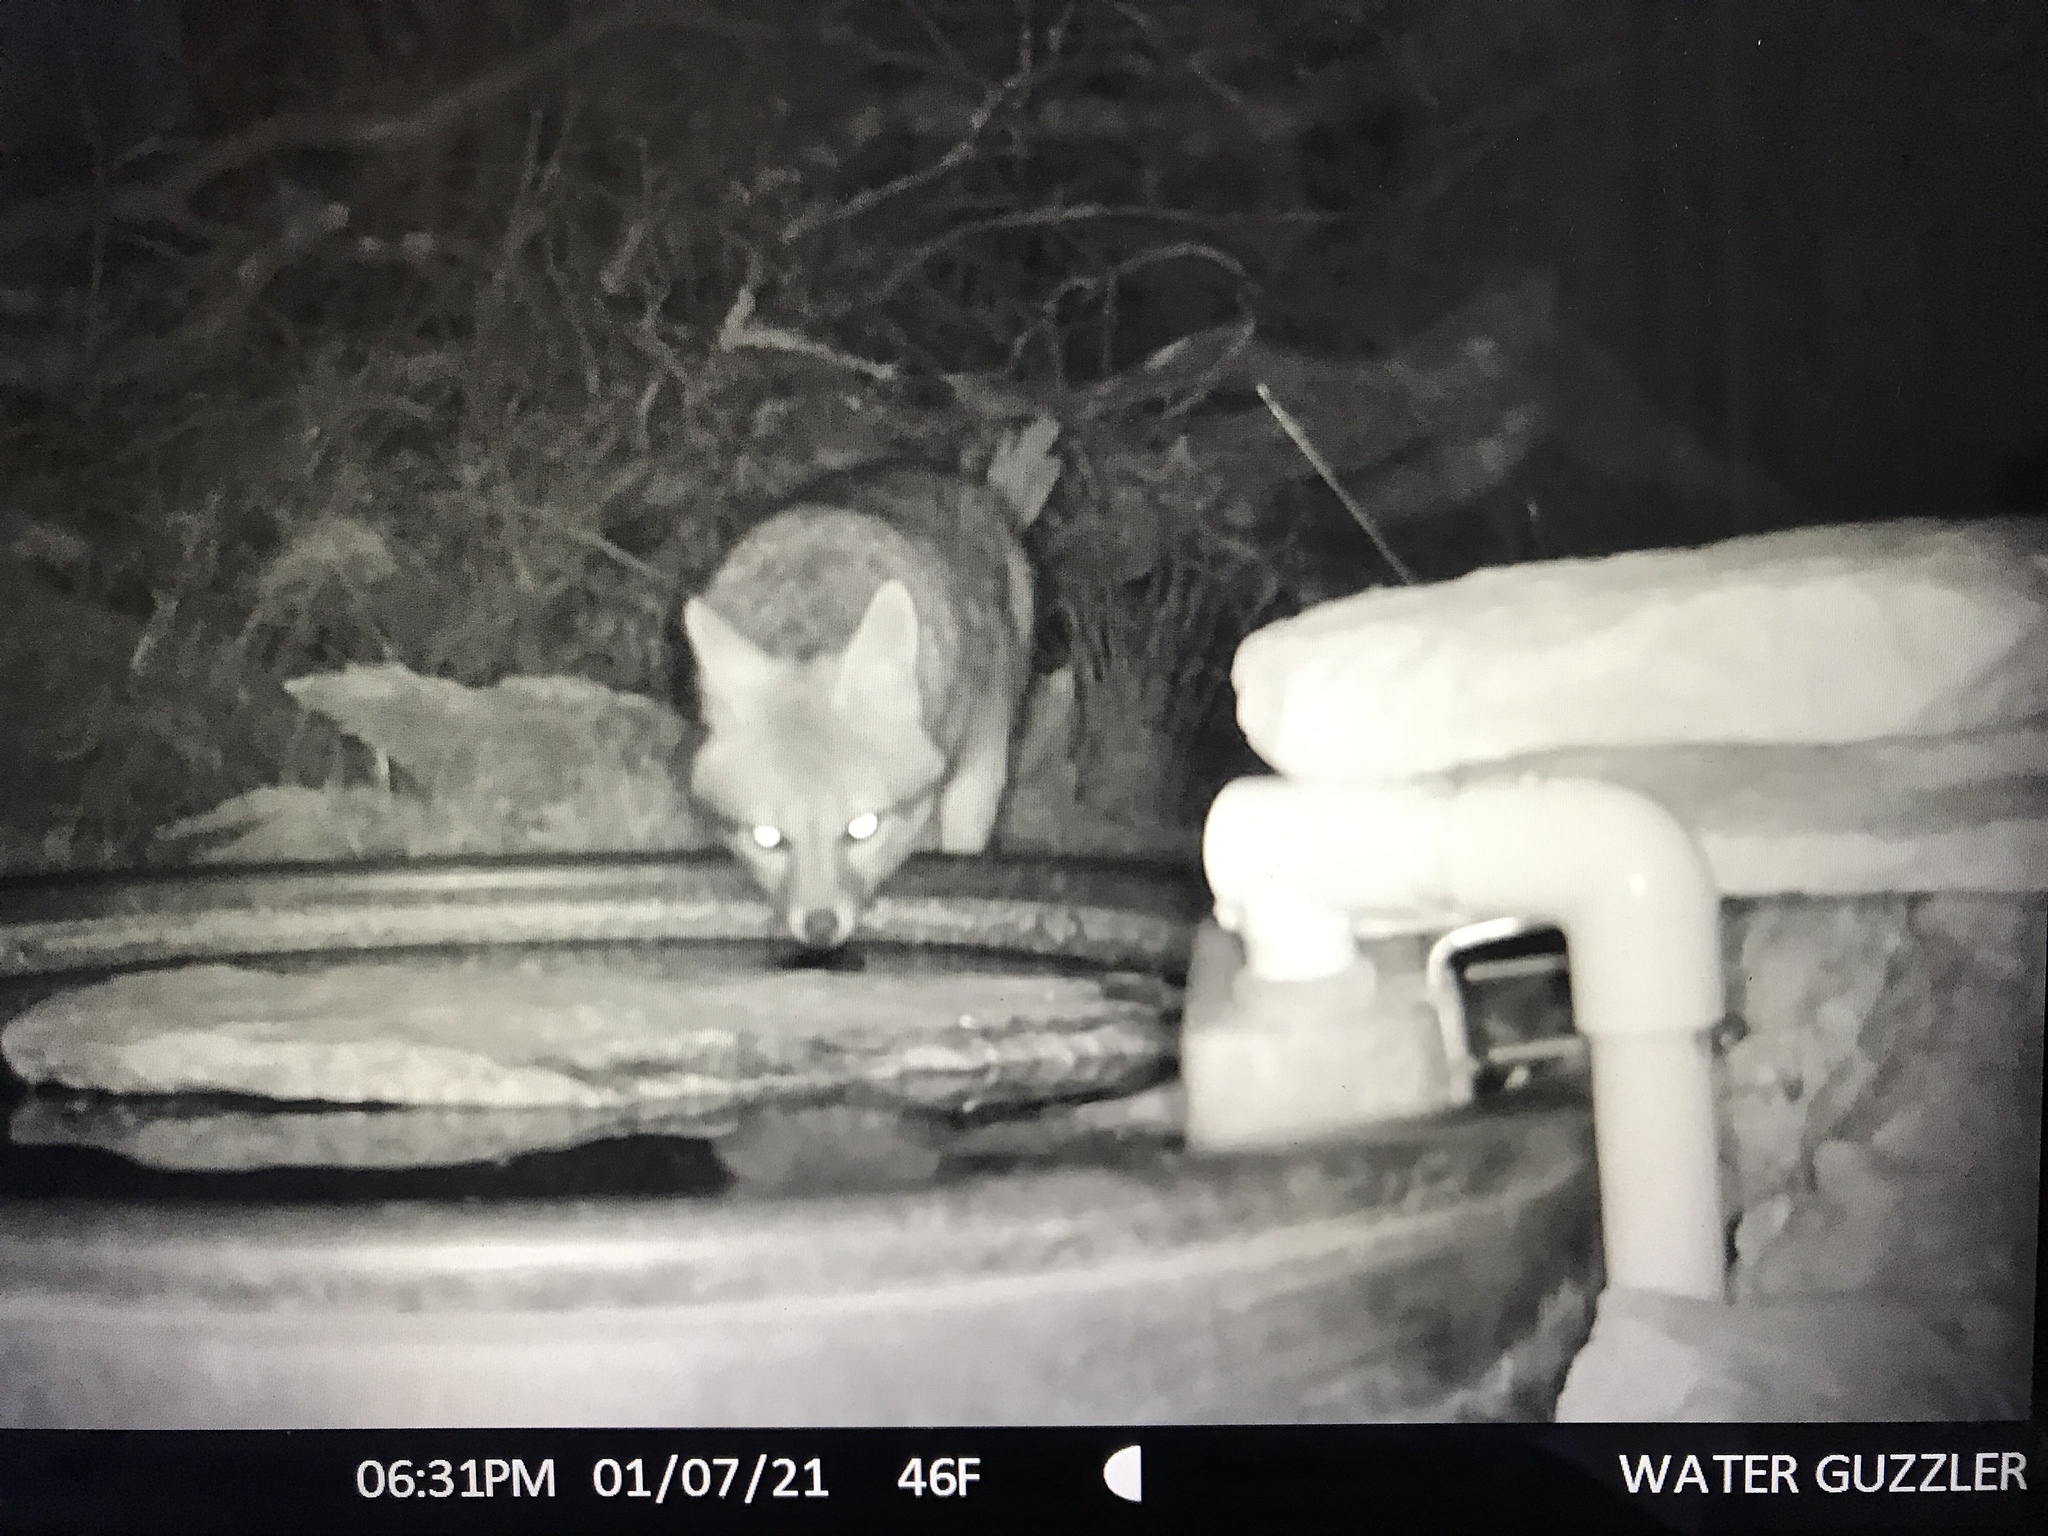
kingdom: Animalia
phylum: Chordata
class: Mammalia
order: Carnivora
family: Canidae
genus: Urocyon
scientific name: Urocyon cinereoargenteus
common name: Gray fox
